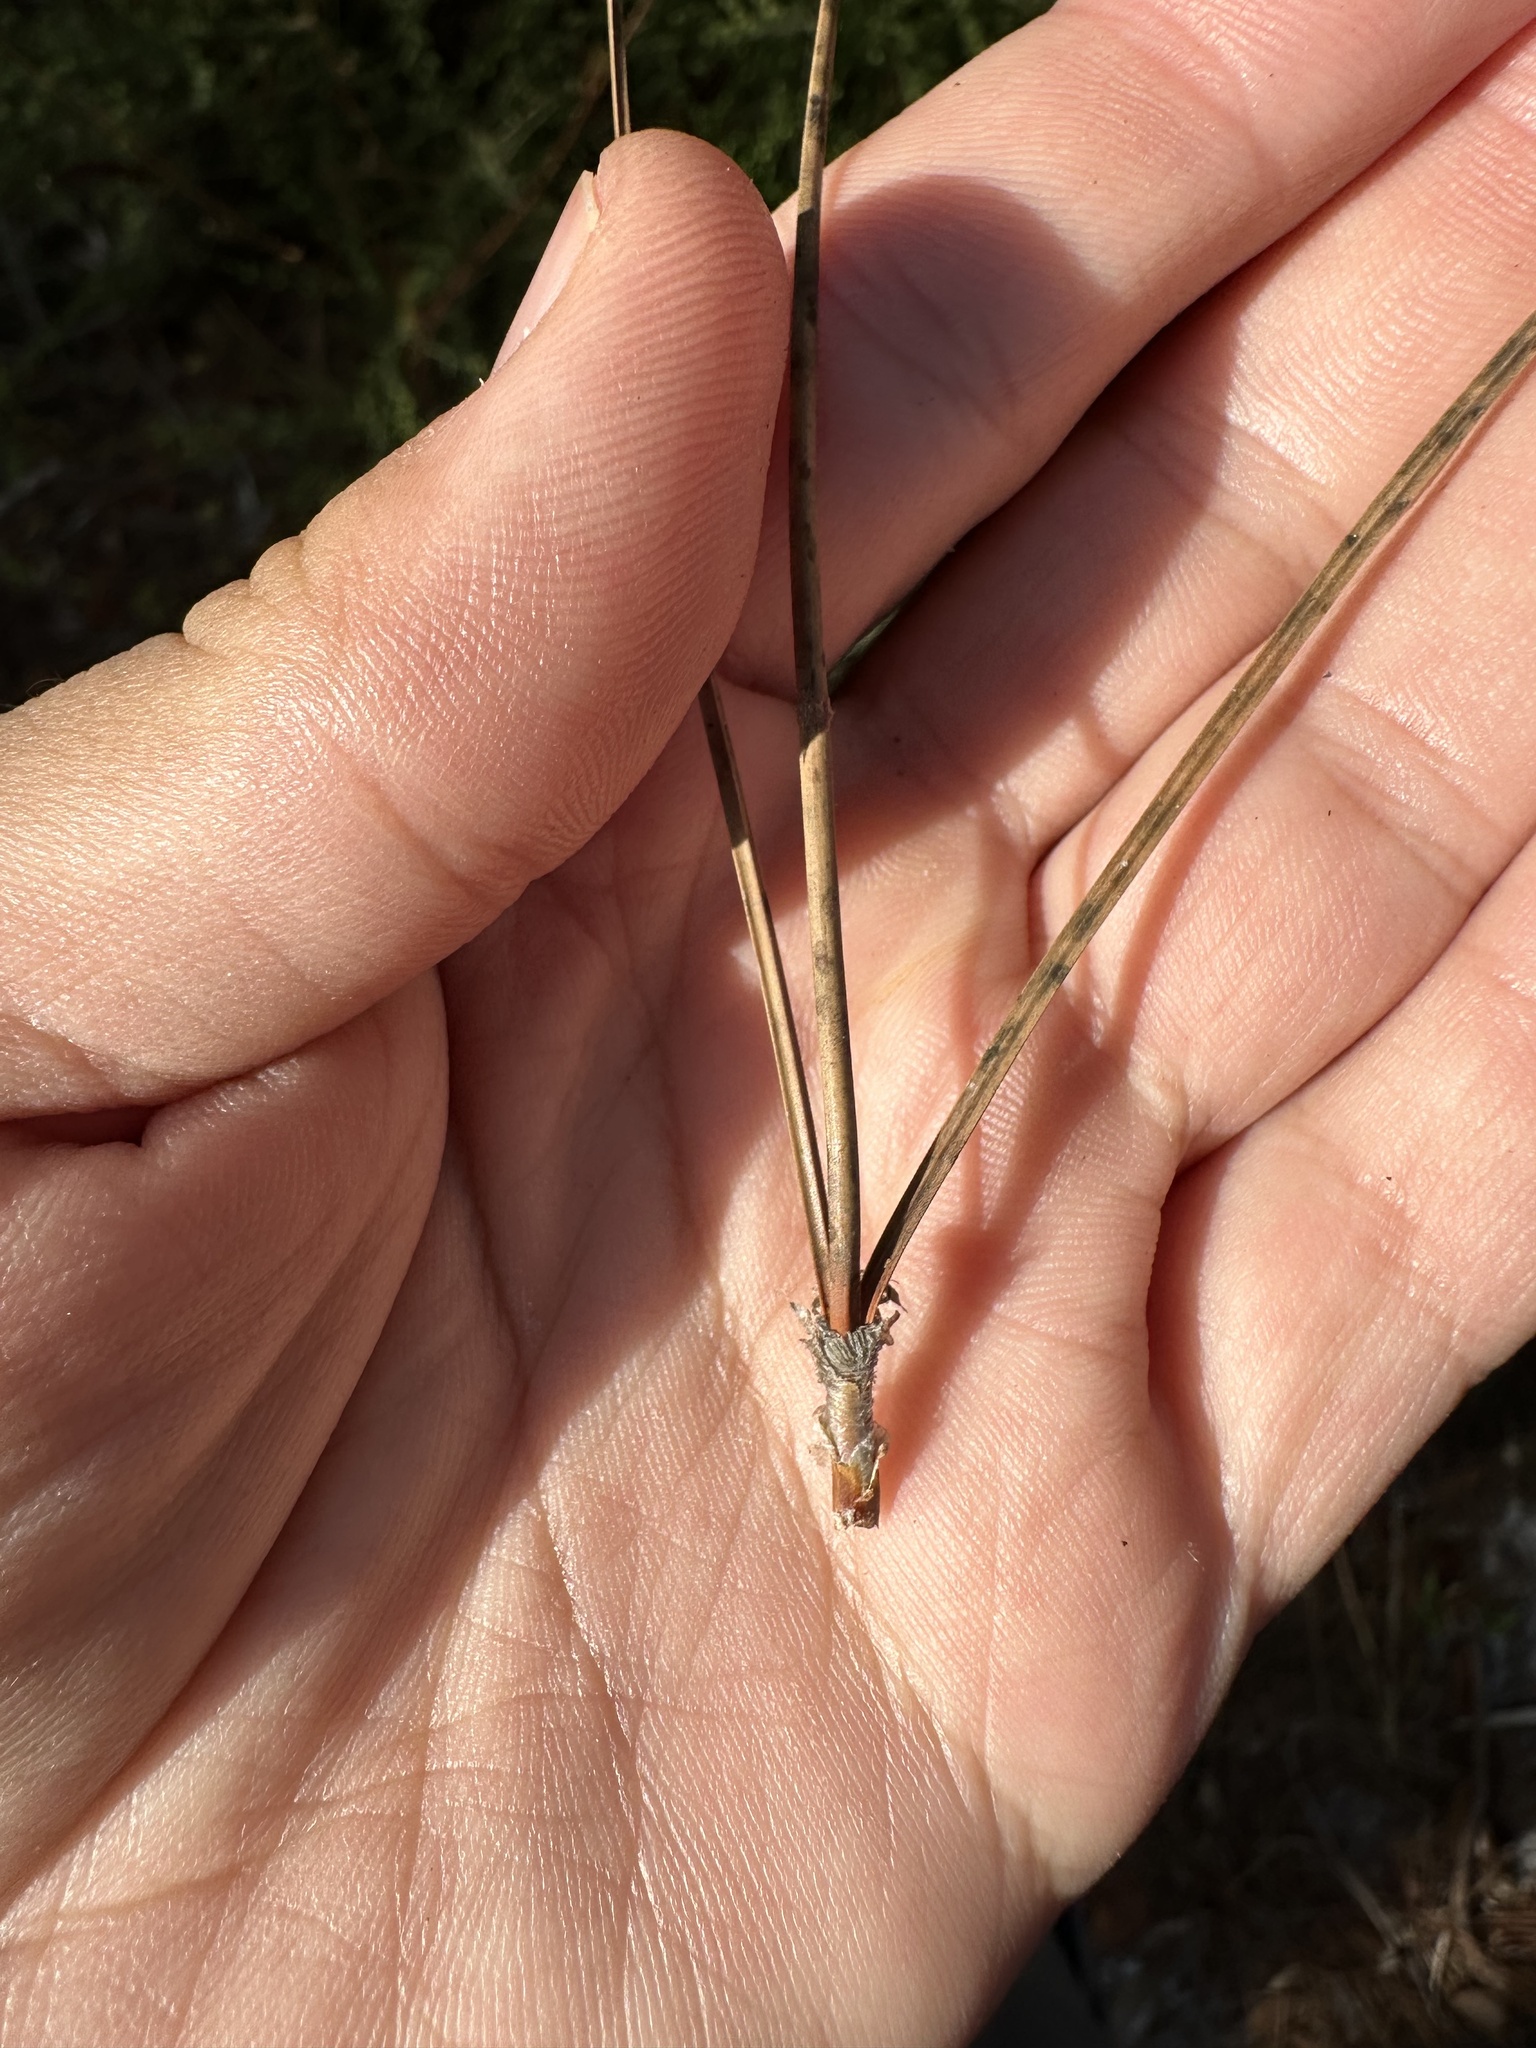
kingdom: Plantae
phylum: Tracheophyta
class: Pinopsida
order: Pinales
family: Pinaceae
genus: Pinus
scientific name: Pinus elliottii
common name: Slash pine
